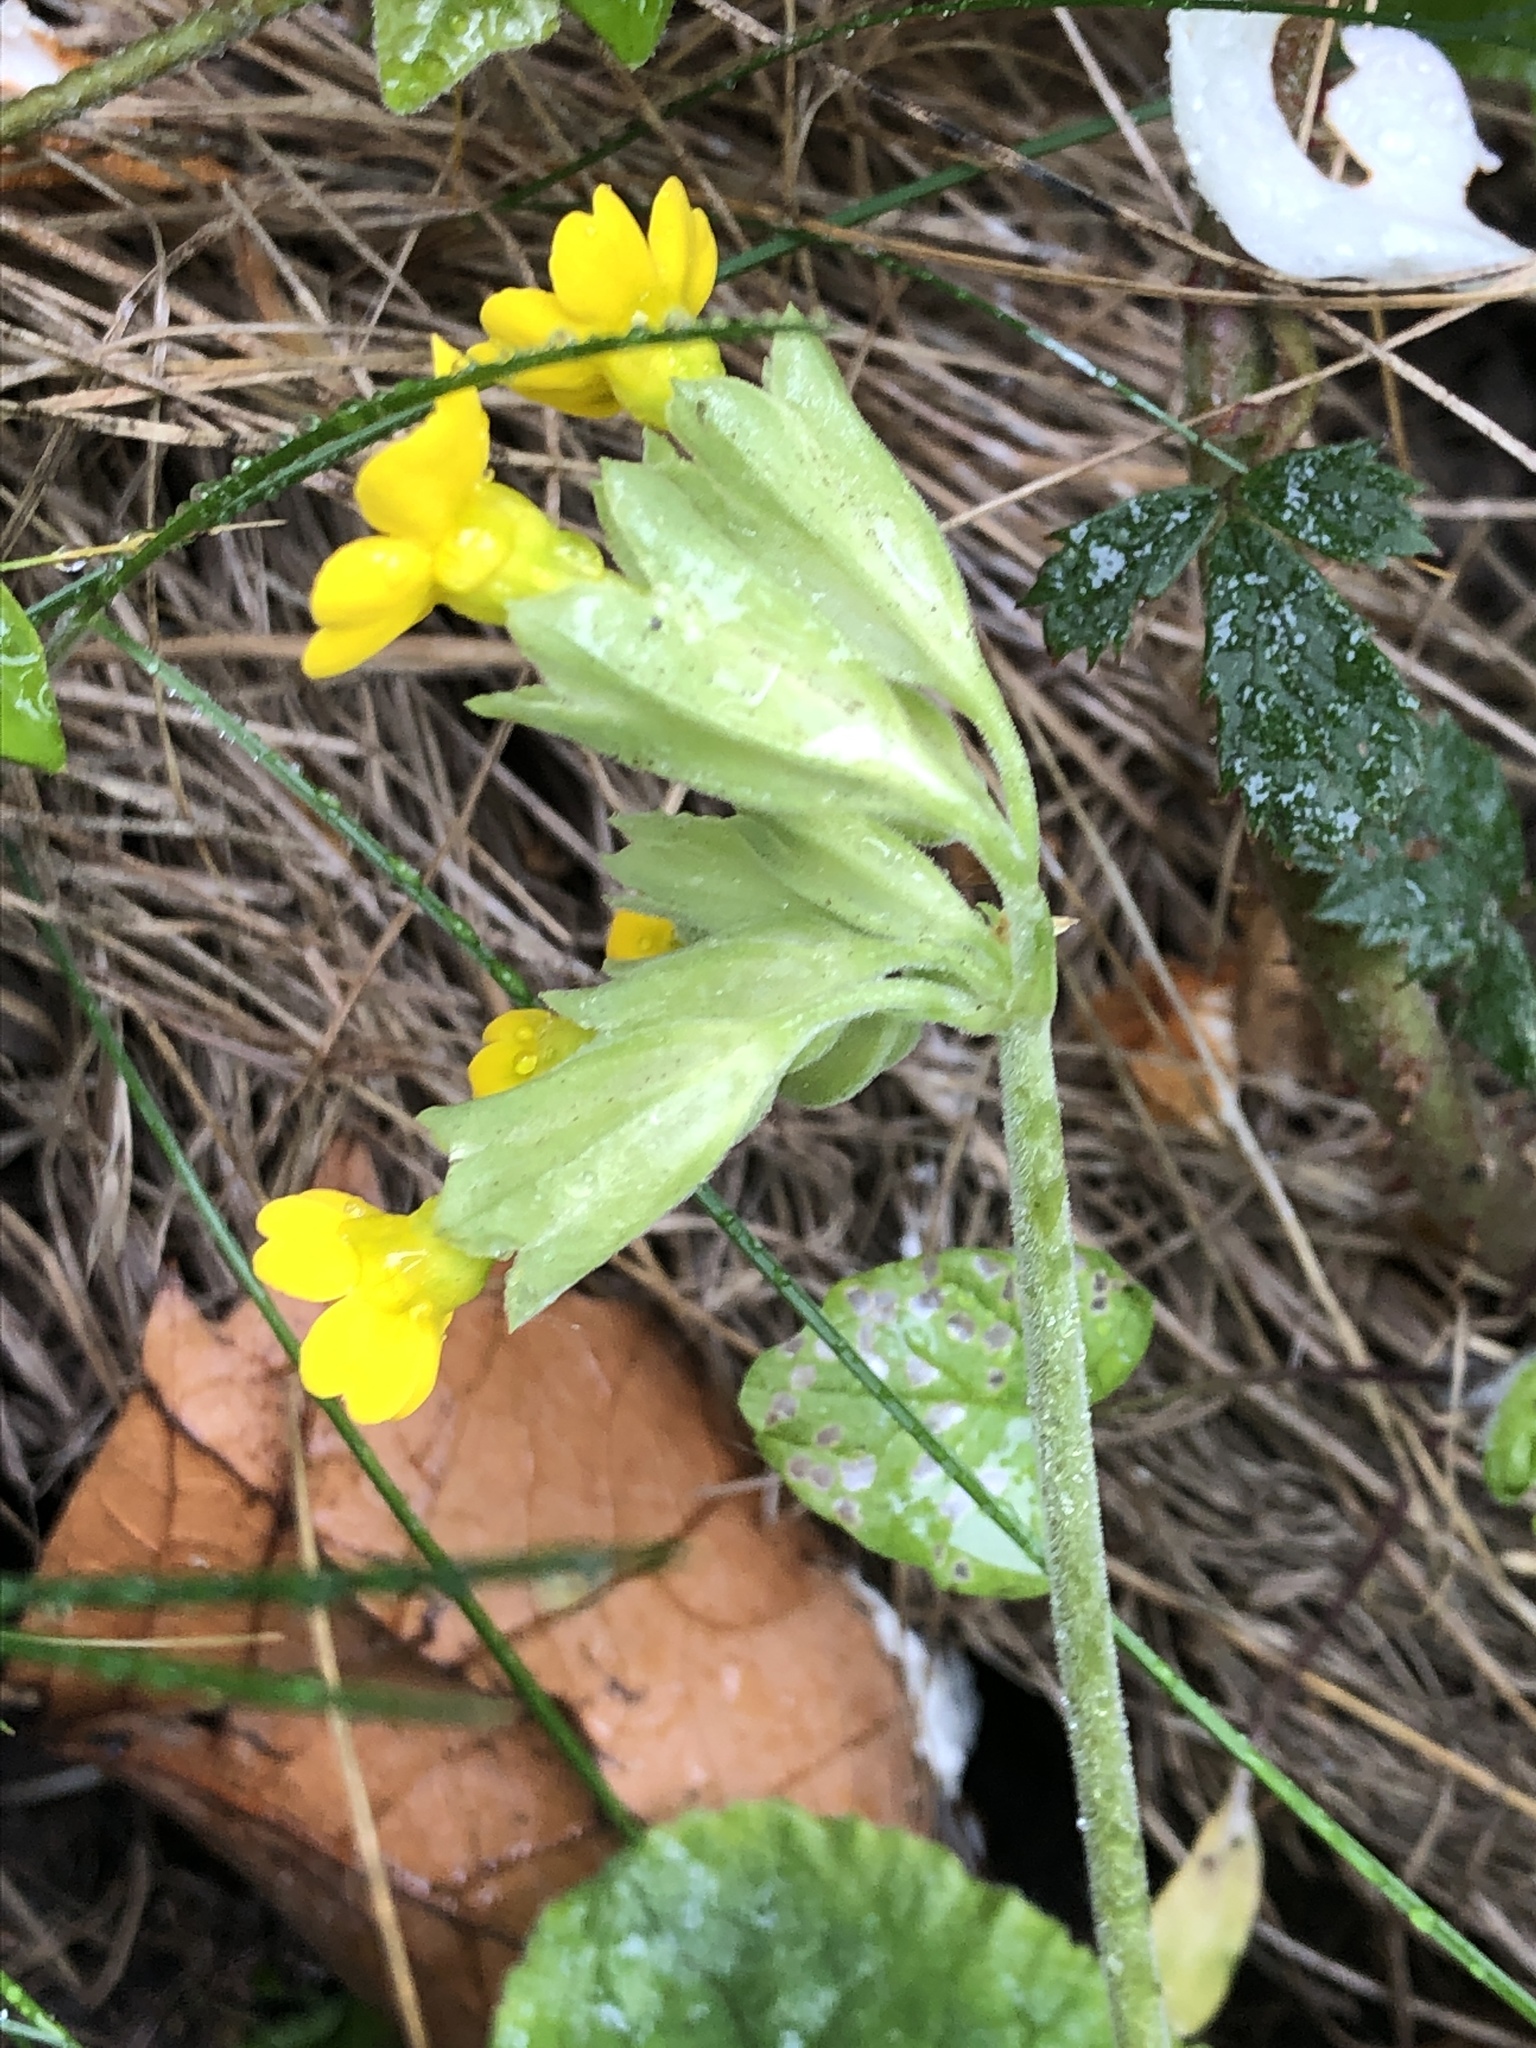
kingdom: Plantae
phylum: Tracheophyta
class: Magnoliopsida
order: Ericales
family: Primulaceae
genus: Primula
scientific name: Primula veris
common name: Cowslip
